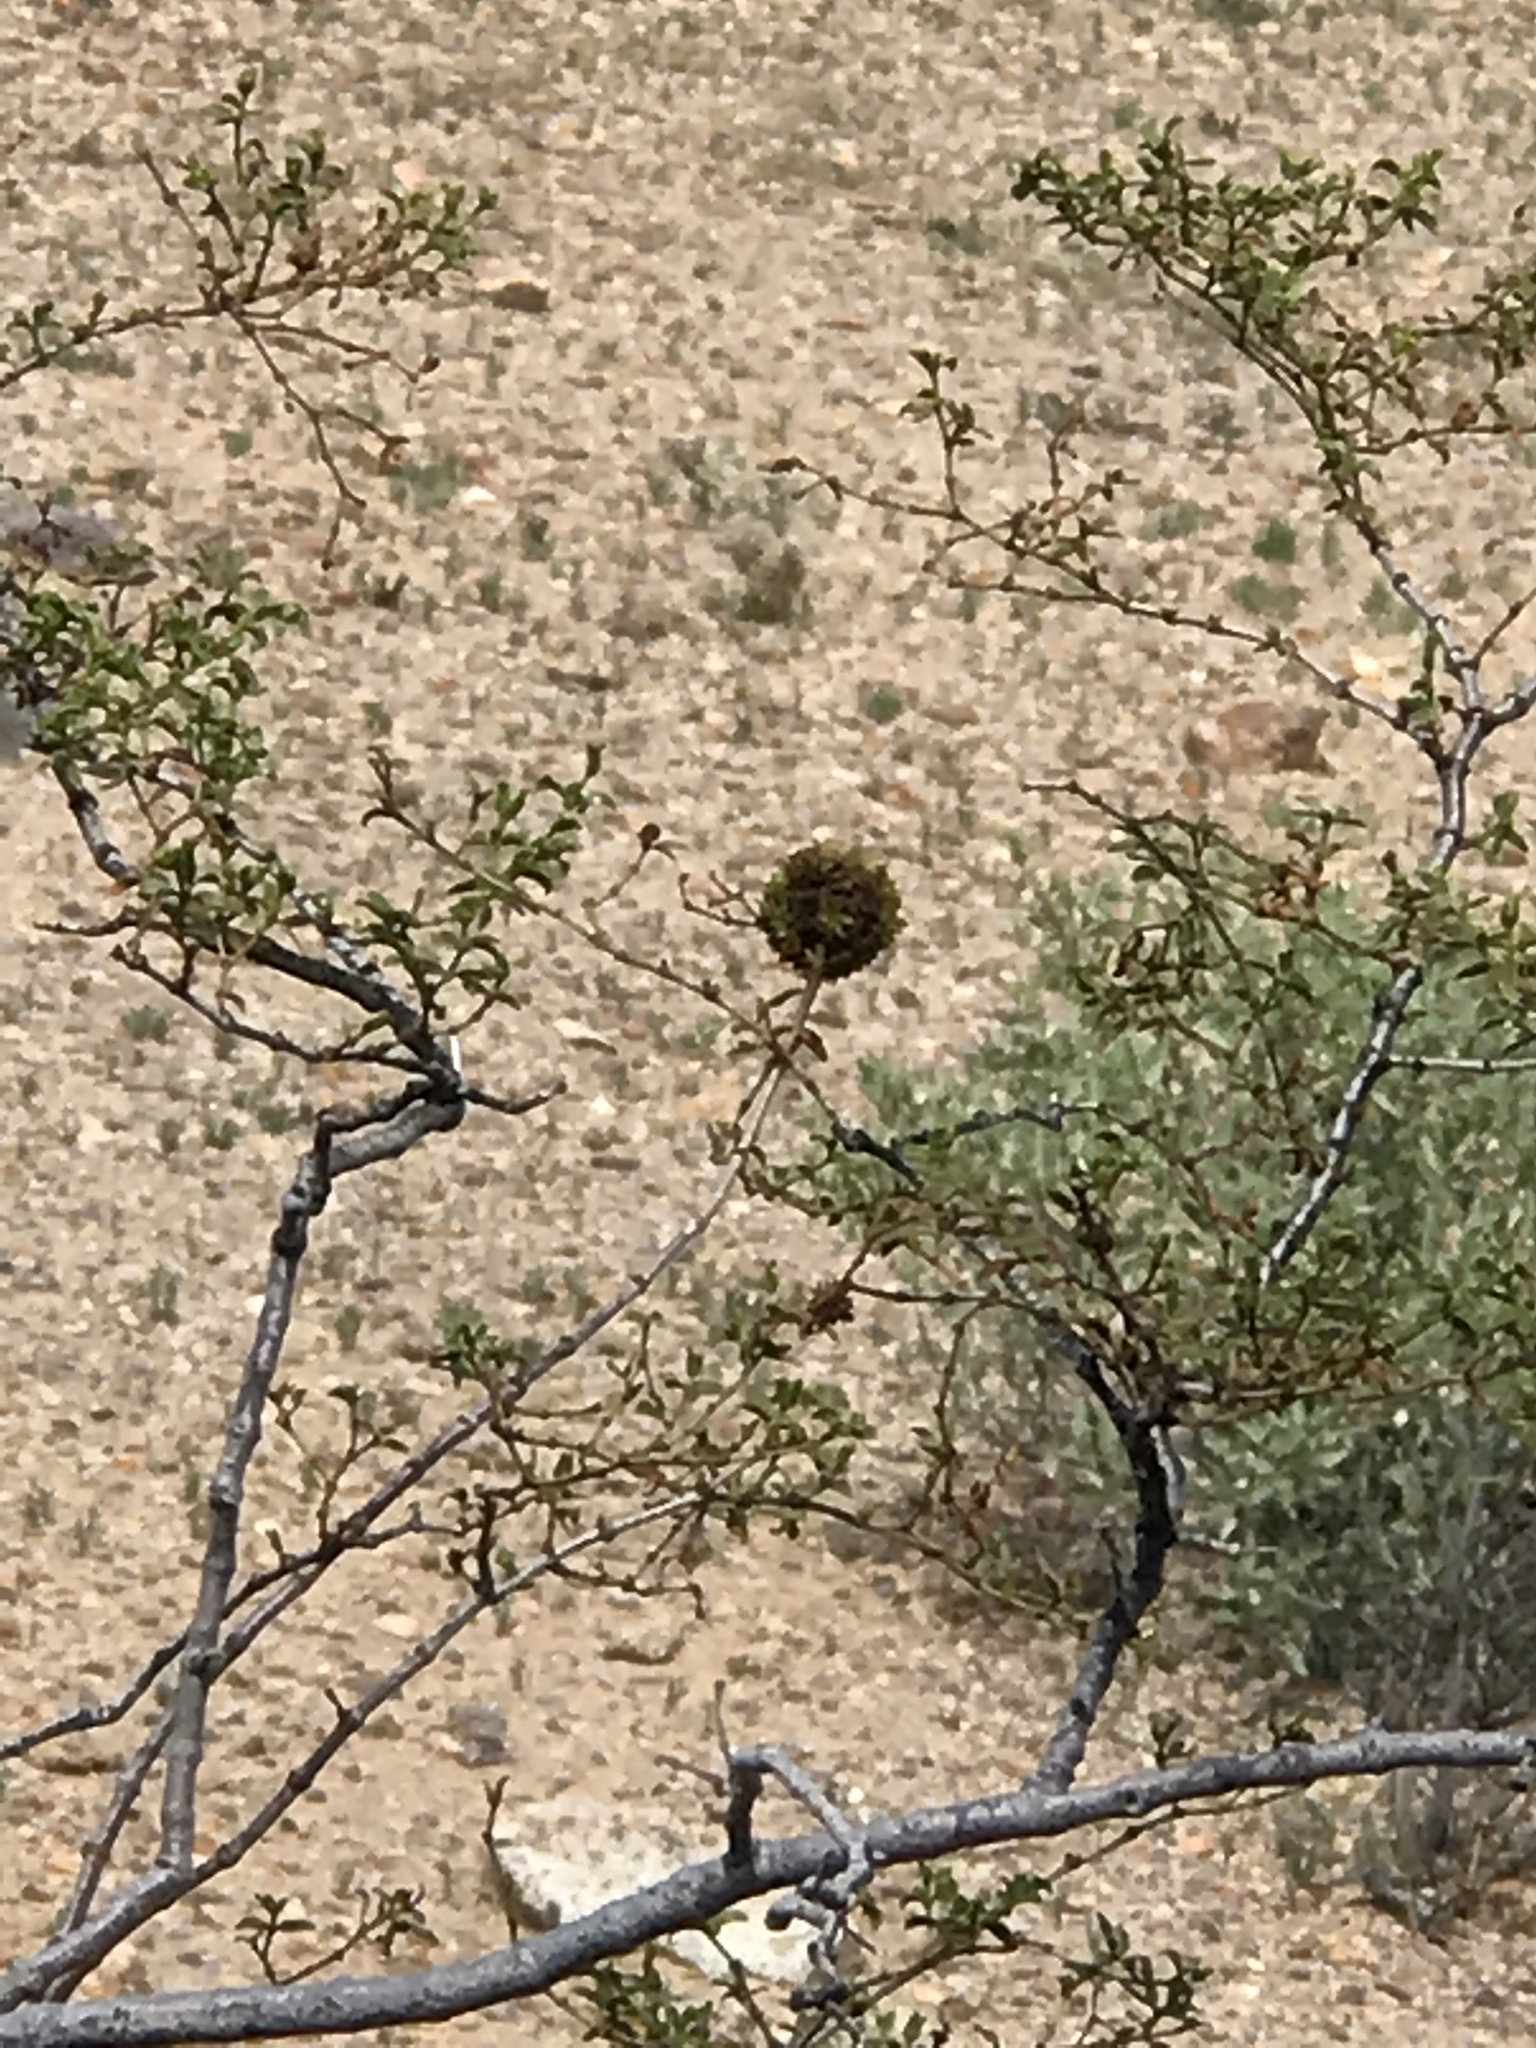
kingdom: Animalia
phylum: Arthropoda
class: Insecta
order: Diptera
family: Cecidomyiidae
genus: Asphondylia
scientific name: Asphondylia auripila
